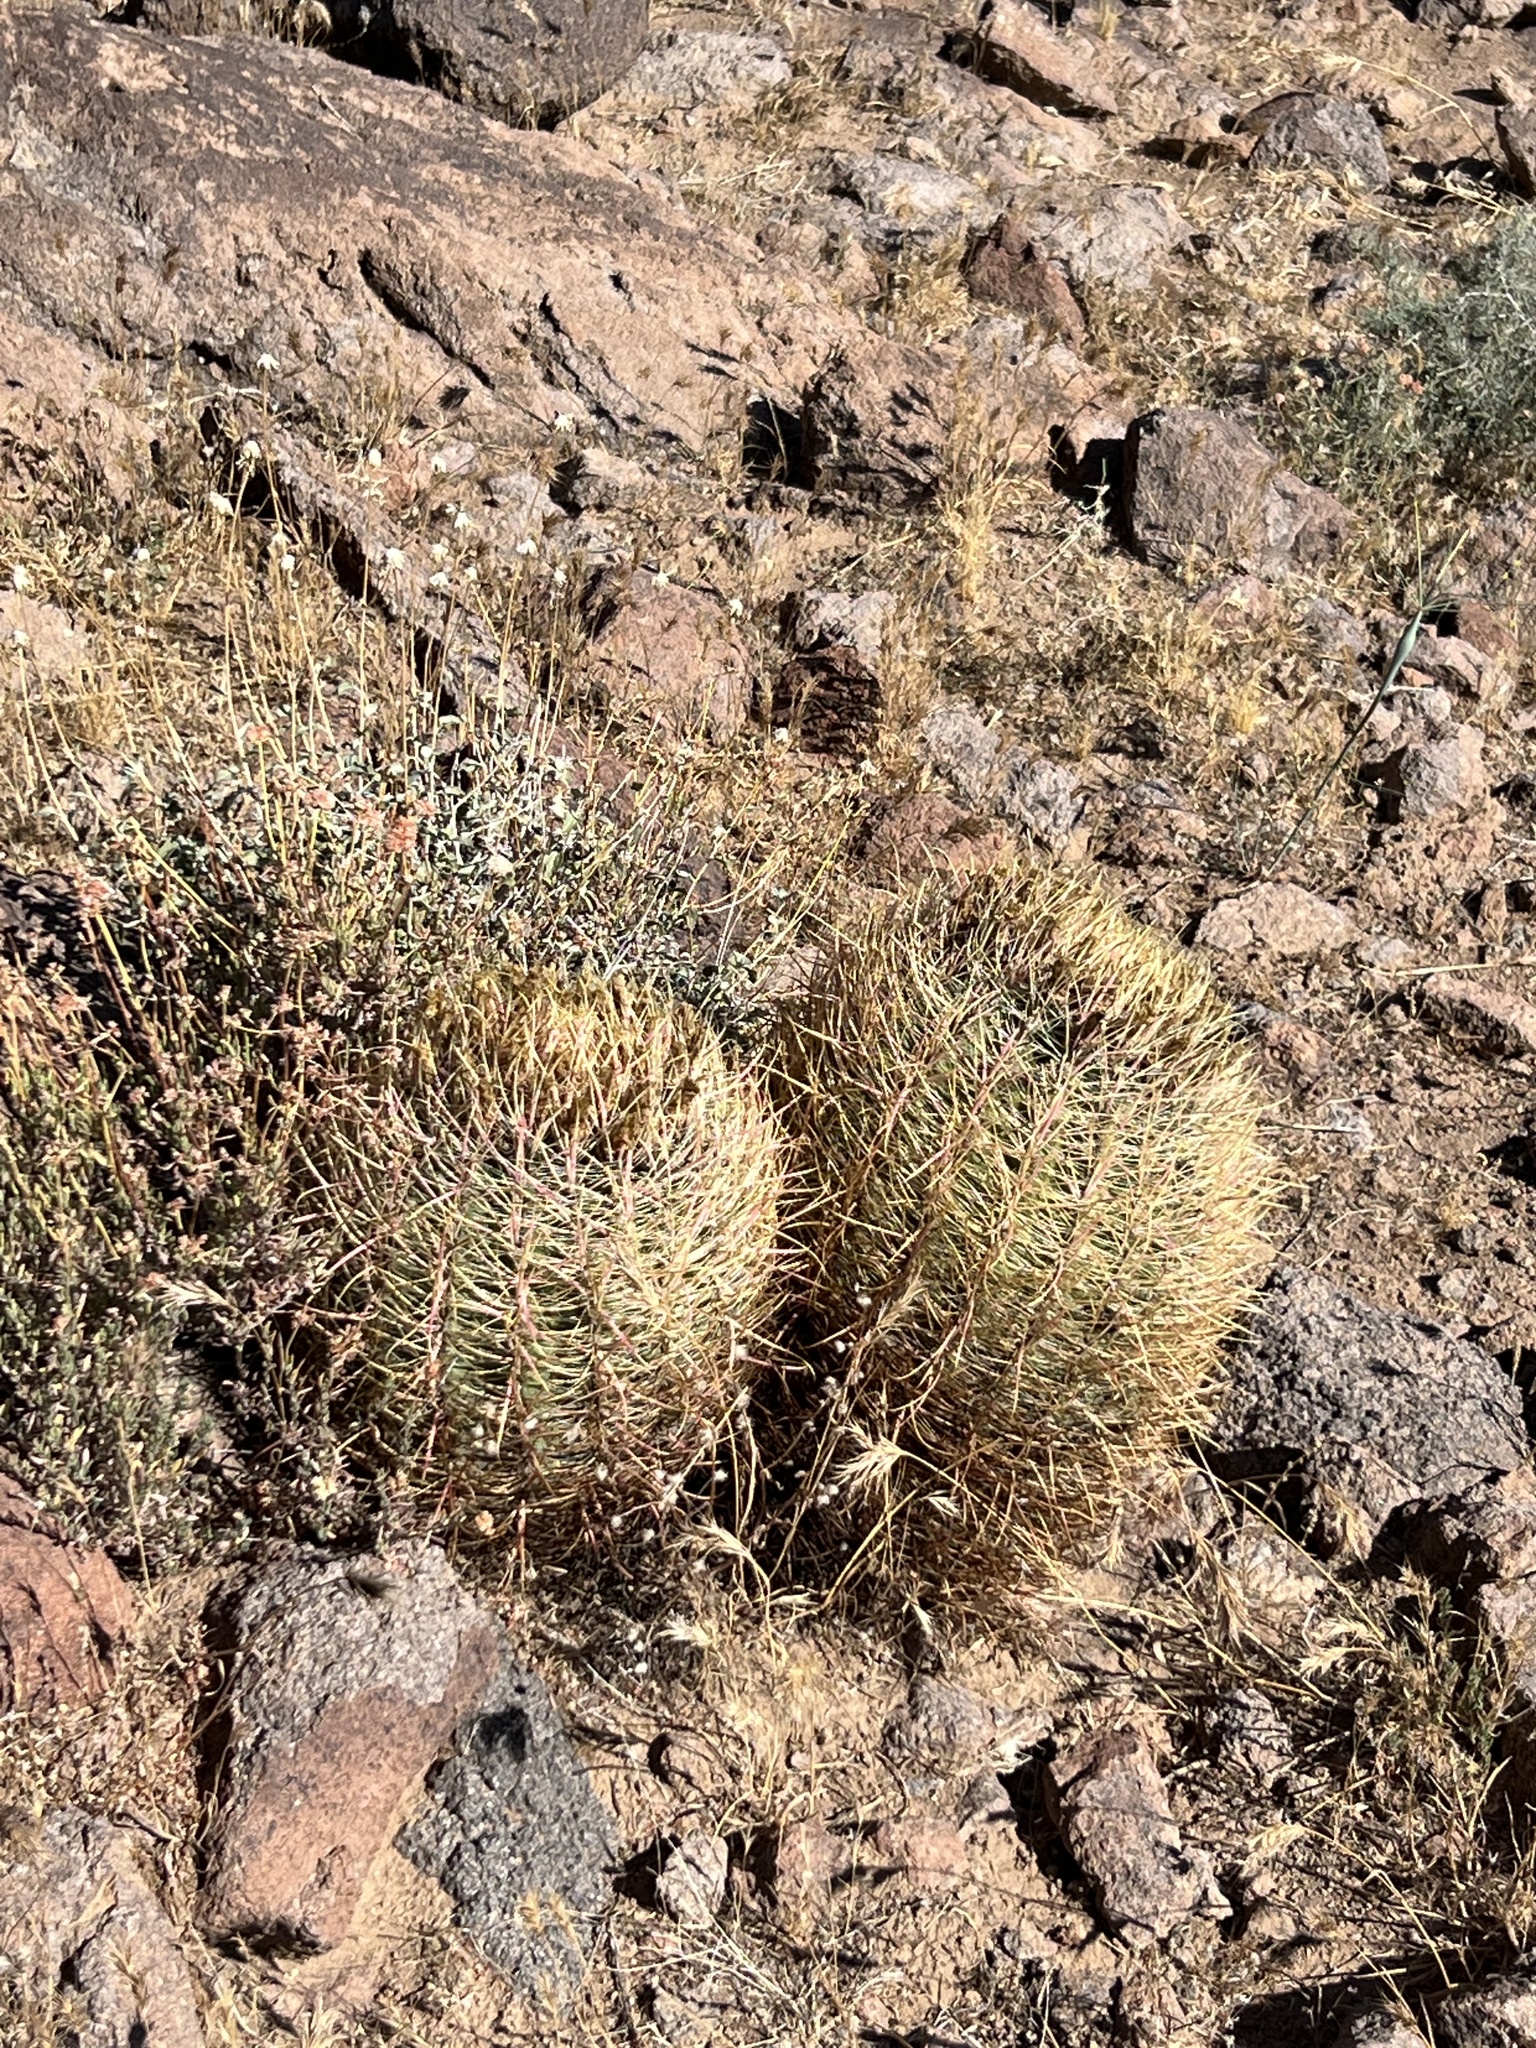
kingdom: Plantae
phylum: Tracheophyta
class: Magnoliopsida
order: Caryophyllales
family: Cactaceae
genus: Ferocactus
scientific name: Ferocactus cylindraceus
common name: California barrel cactus
